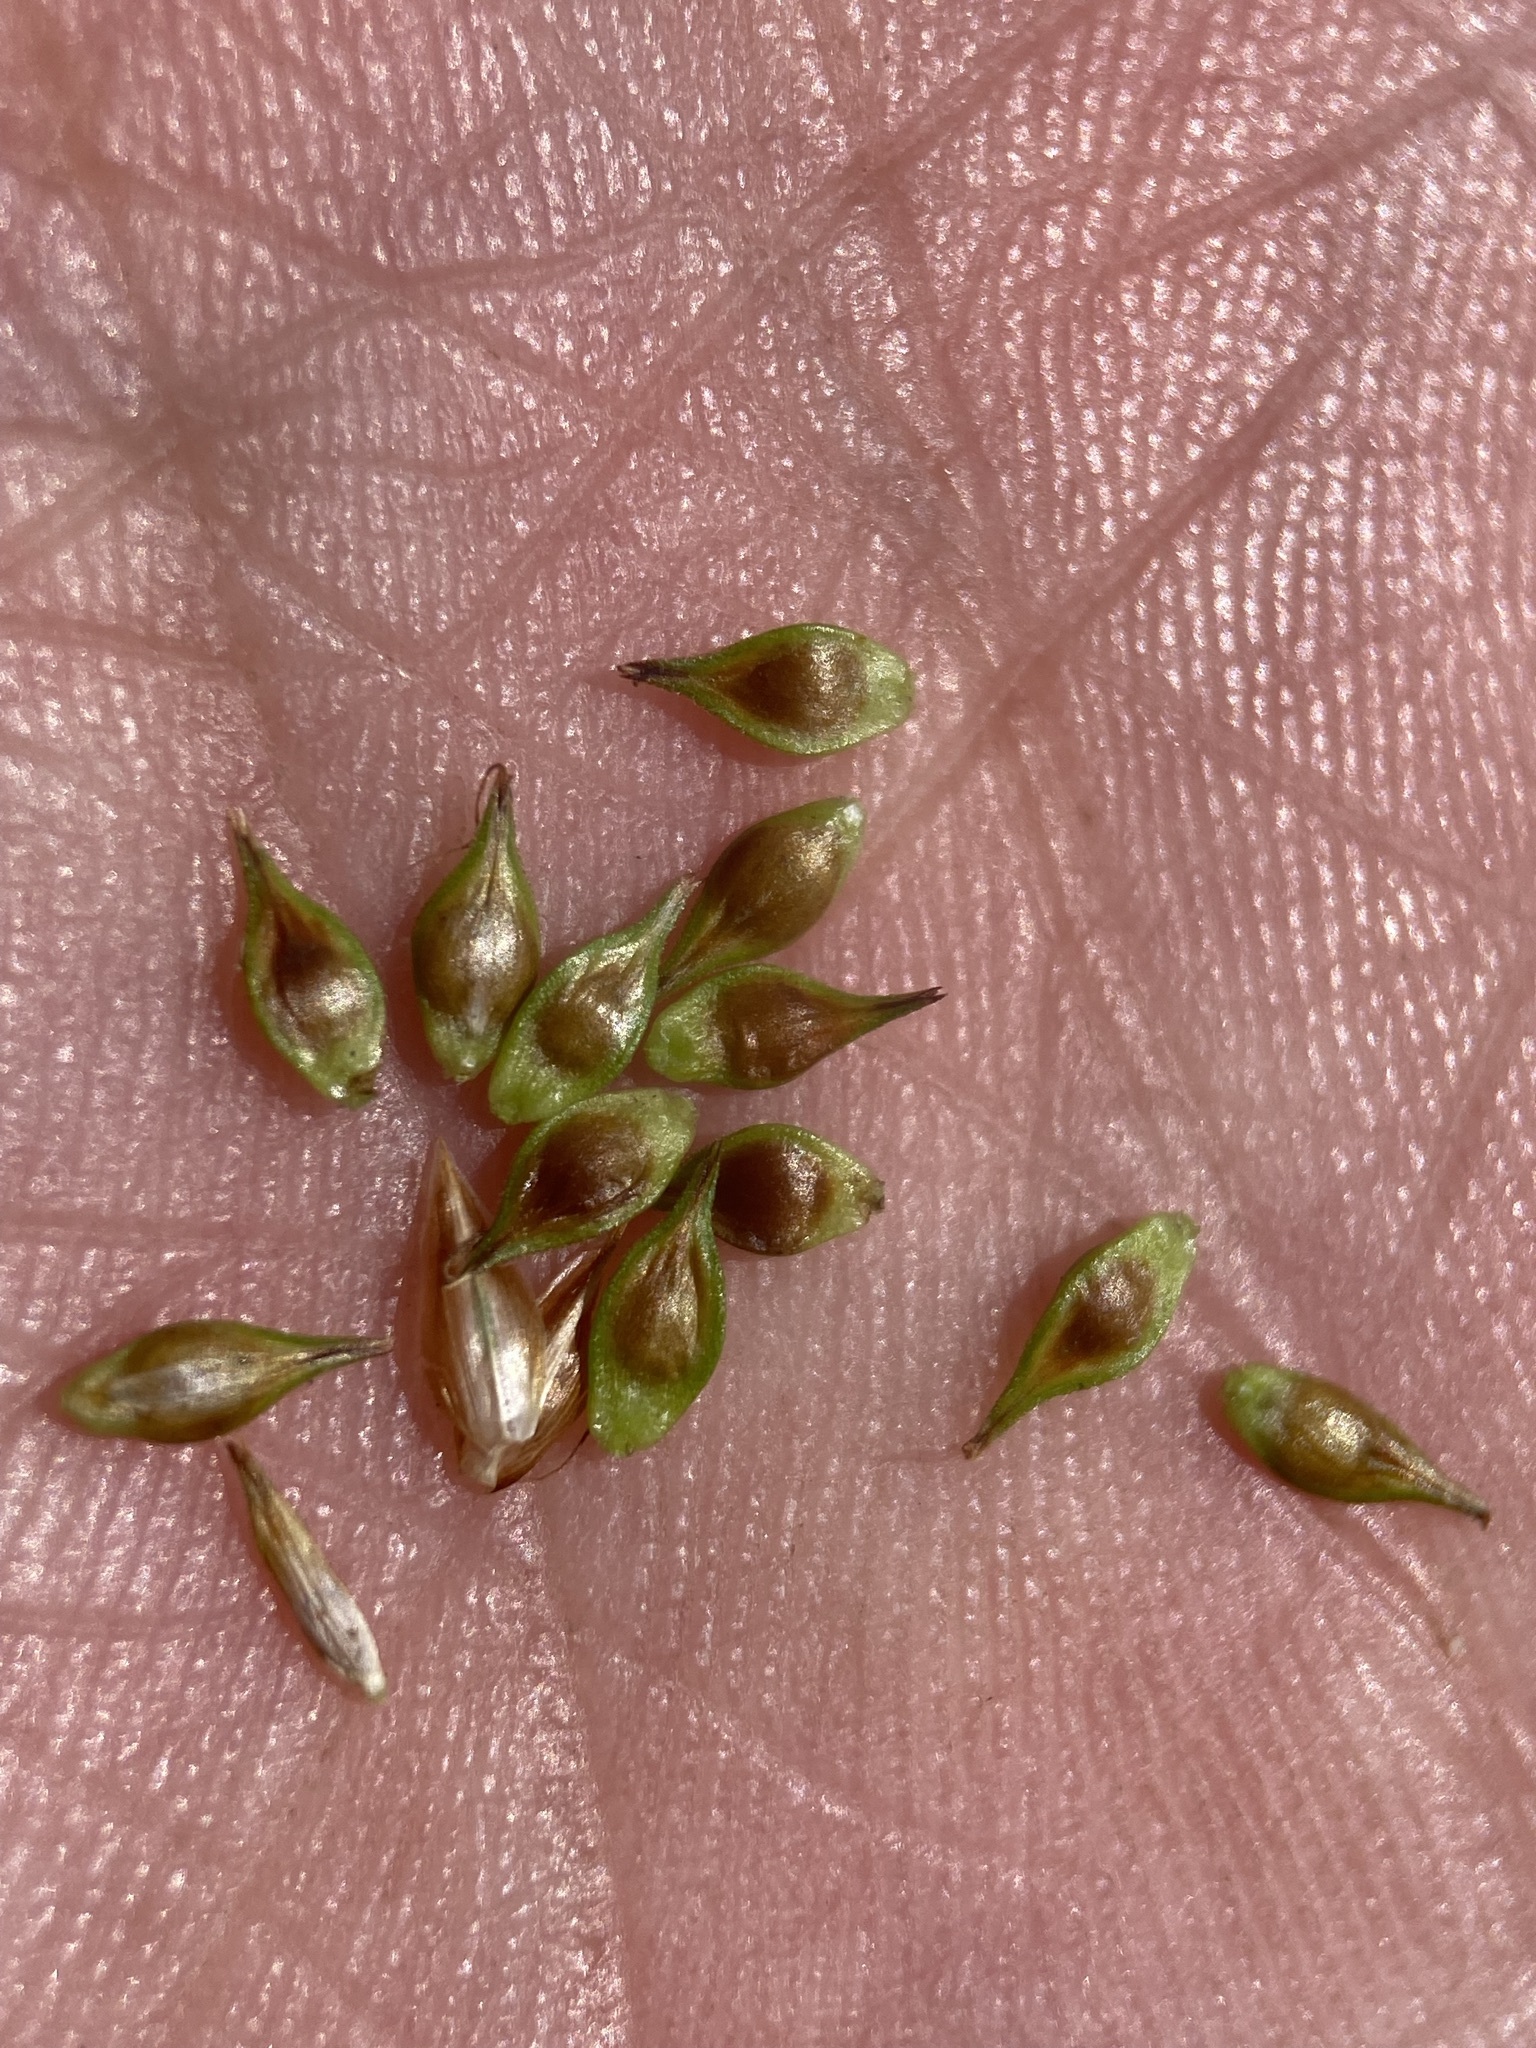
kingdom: Plantae
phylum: Tracheophyta
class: Liliopsida
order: Poales
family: Cyperaceae
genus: Carex
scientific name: Carex hoodii
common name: Hood's sedge
